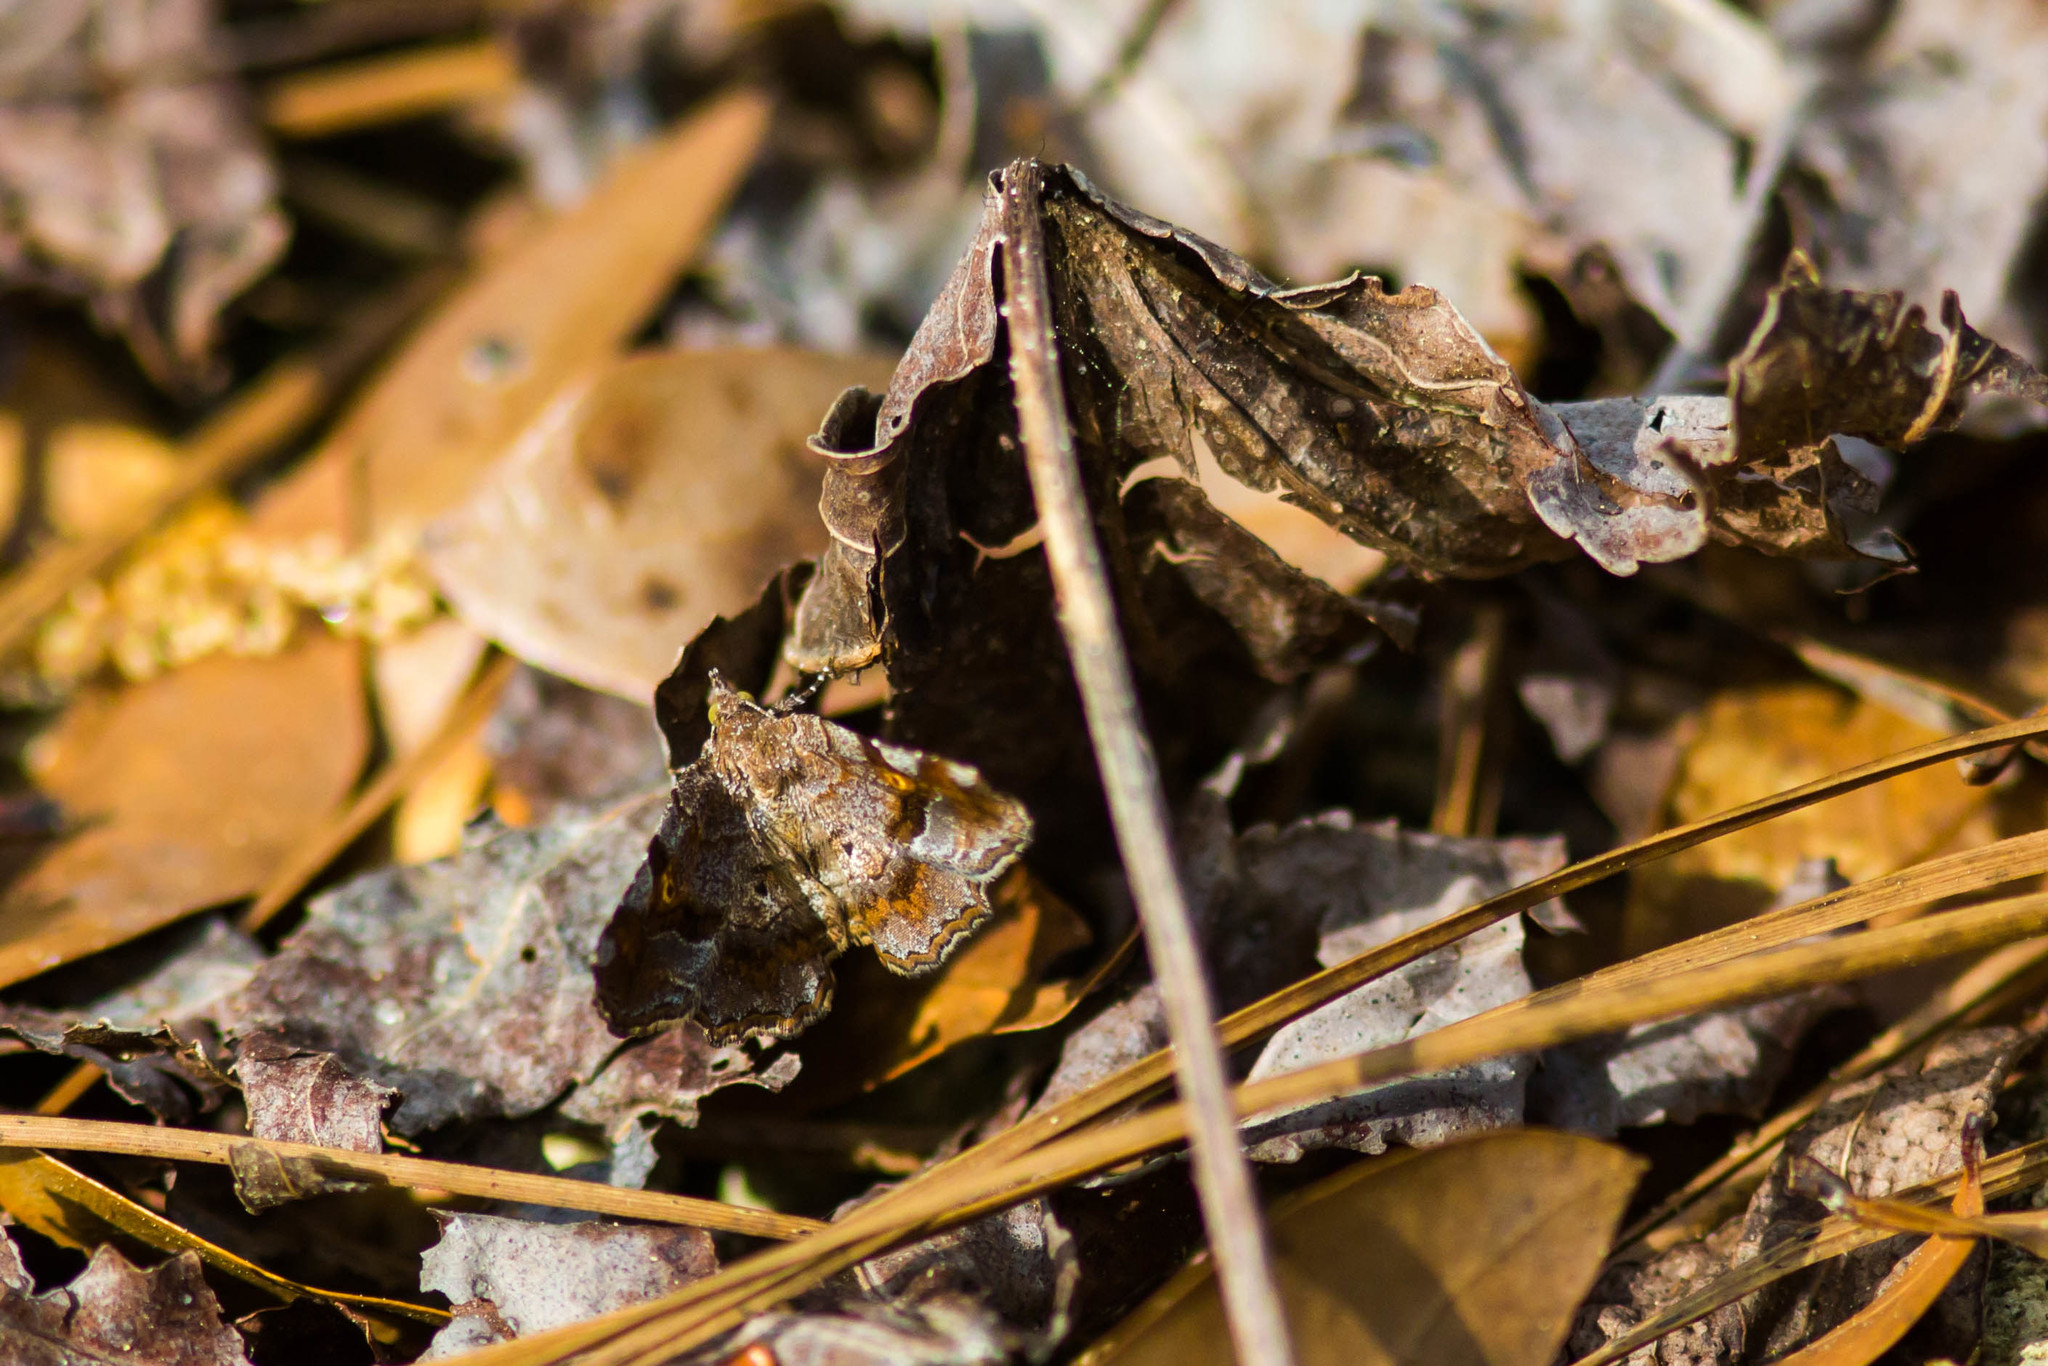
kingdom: Animalia
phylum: Arthropoda
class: Insecta
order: Lepidoptera
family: Erebidae
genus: Pangrapta
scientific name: Pangrapta decoralis
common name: Decorated owlet
